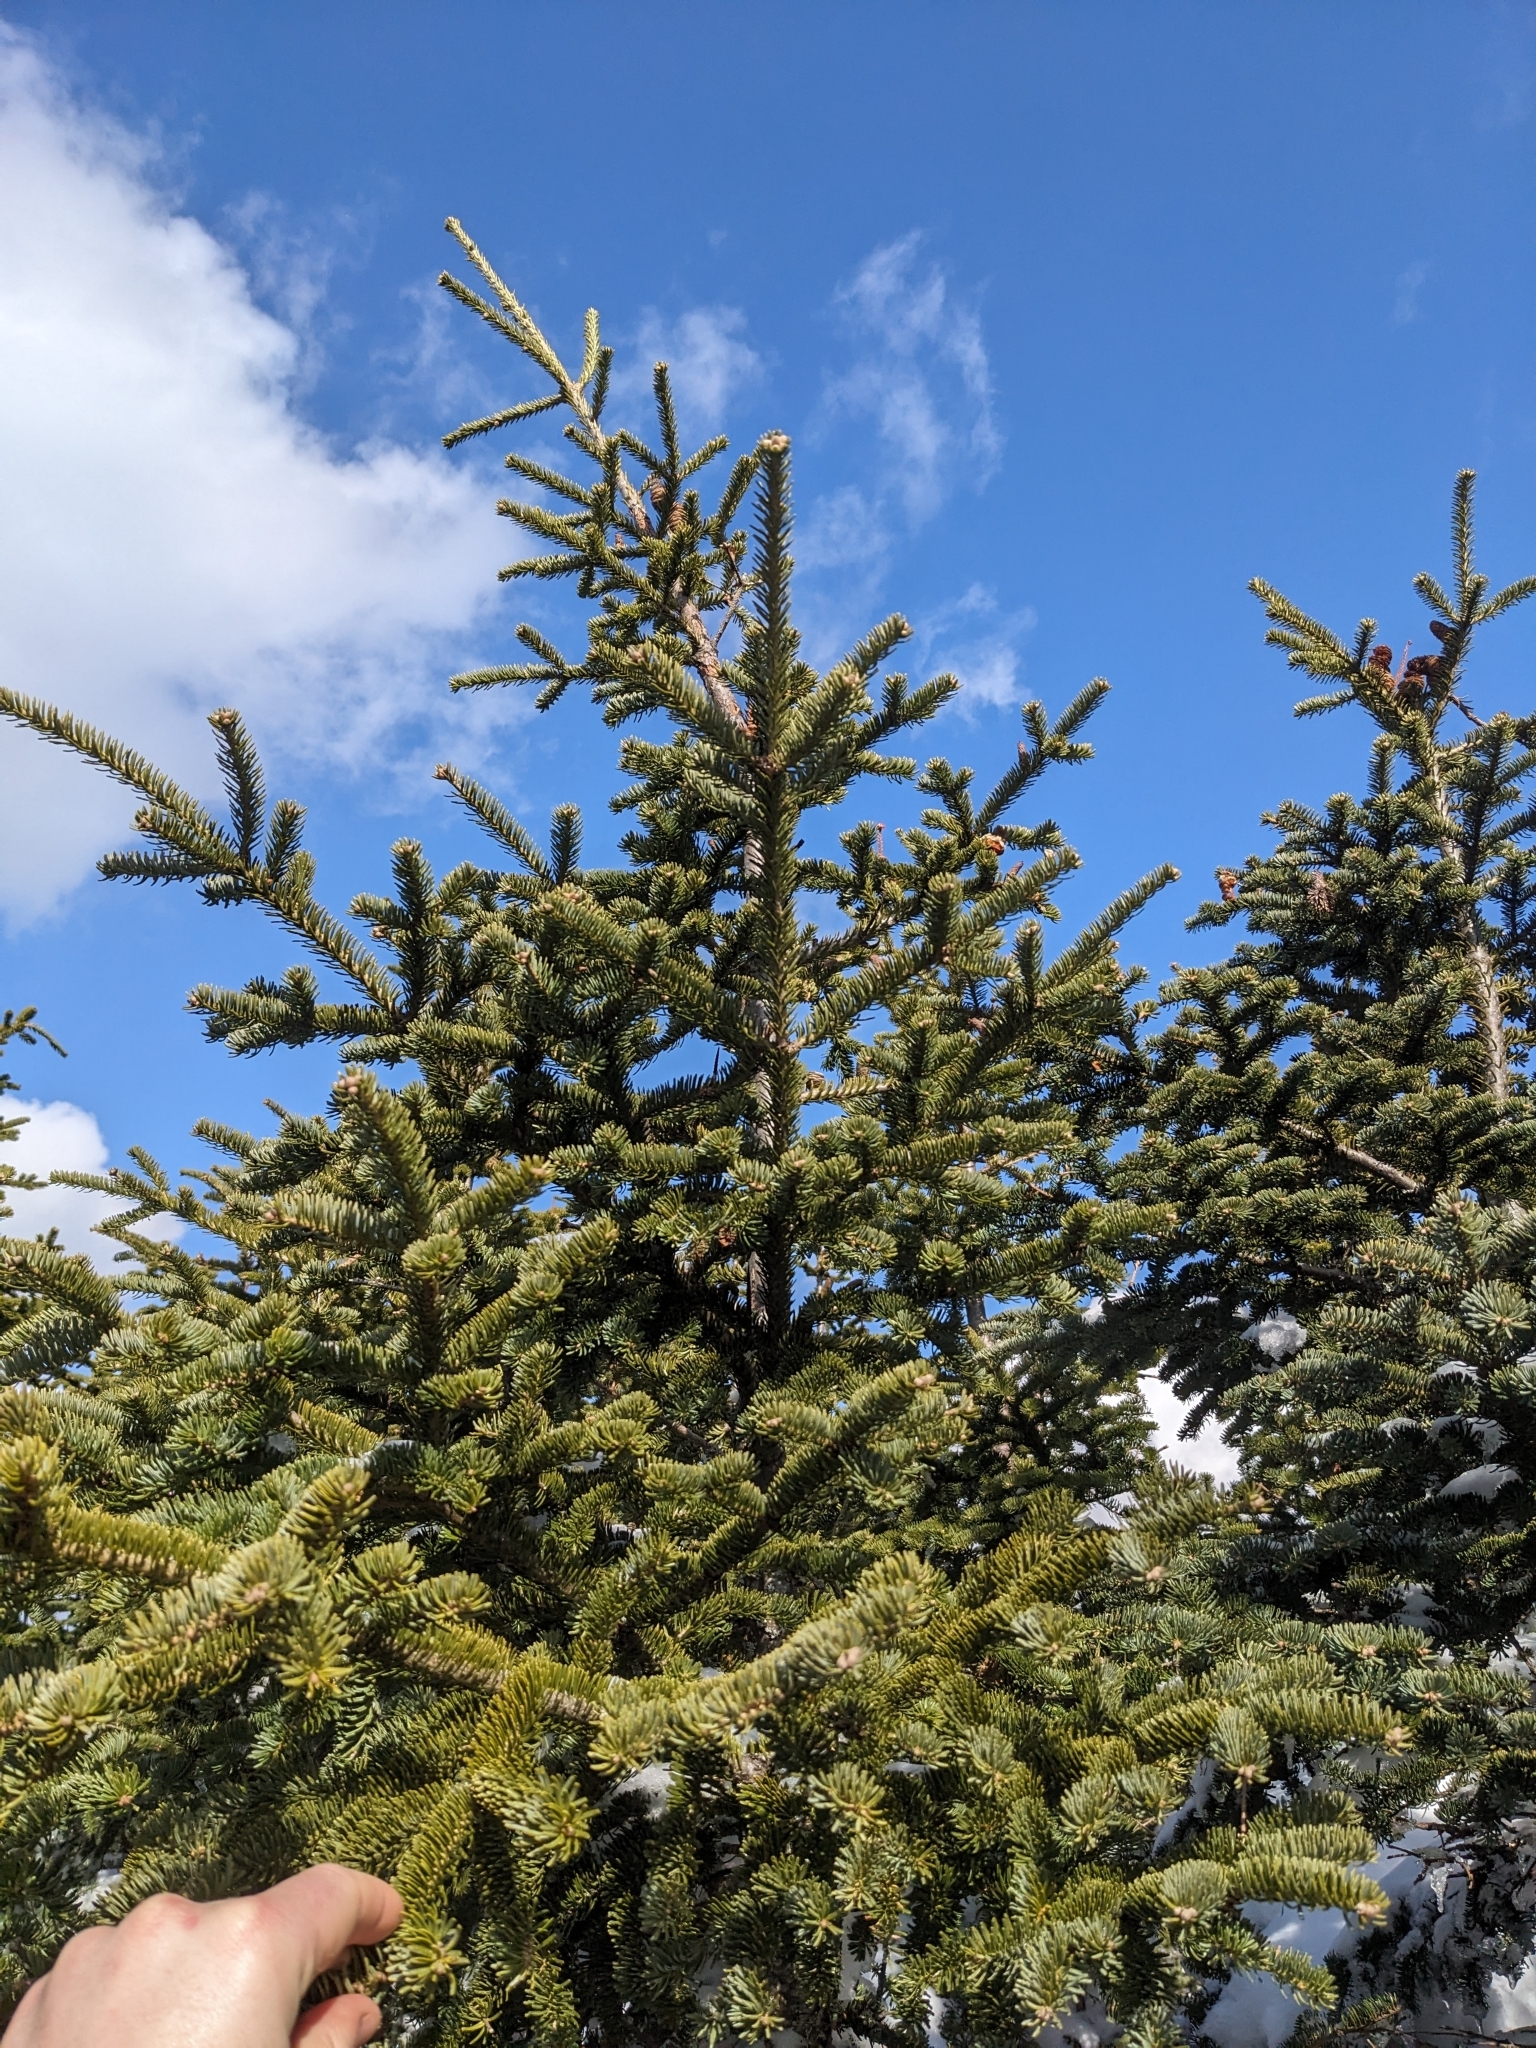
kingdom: Plantae
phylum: Tracheophyta
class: Pinopsida
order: Pinales
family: Pinaceae
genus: Abies
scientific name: Abies balsamea
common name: Balsam fir
